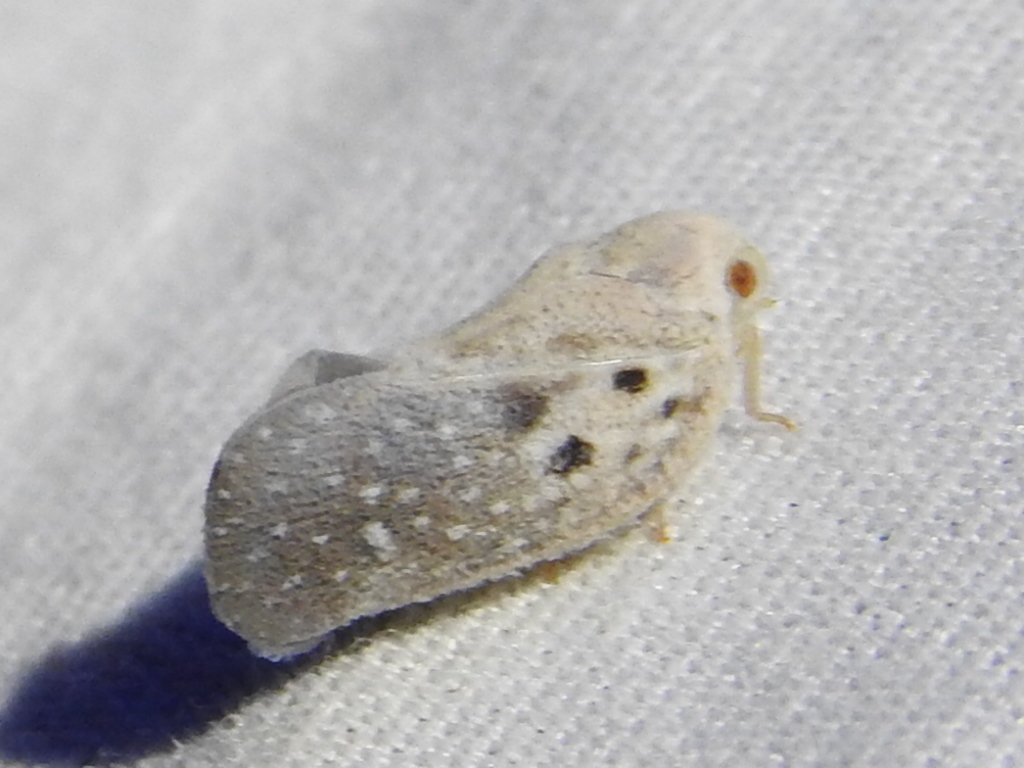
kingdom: Animalia
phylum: Arthropoda
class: Insecta
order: Hemiptera
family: Flatidae
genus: Metcalfa
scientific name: Metcalfa pruinosa
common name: Citrus flatid planthopper
